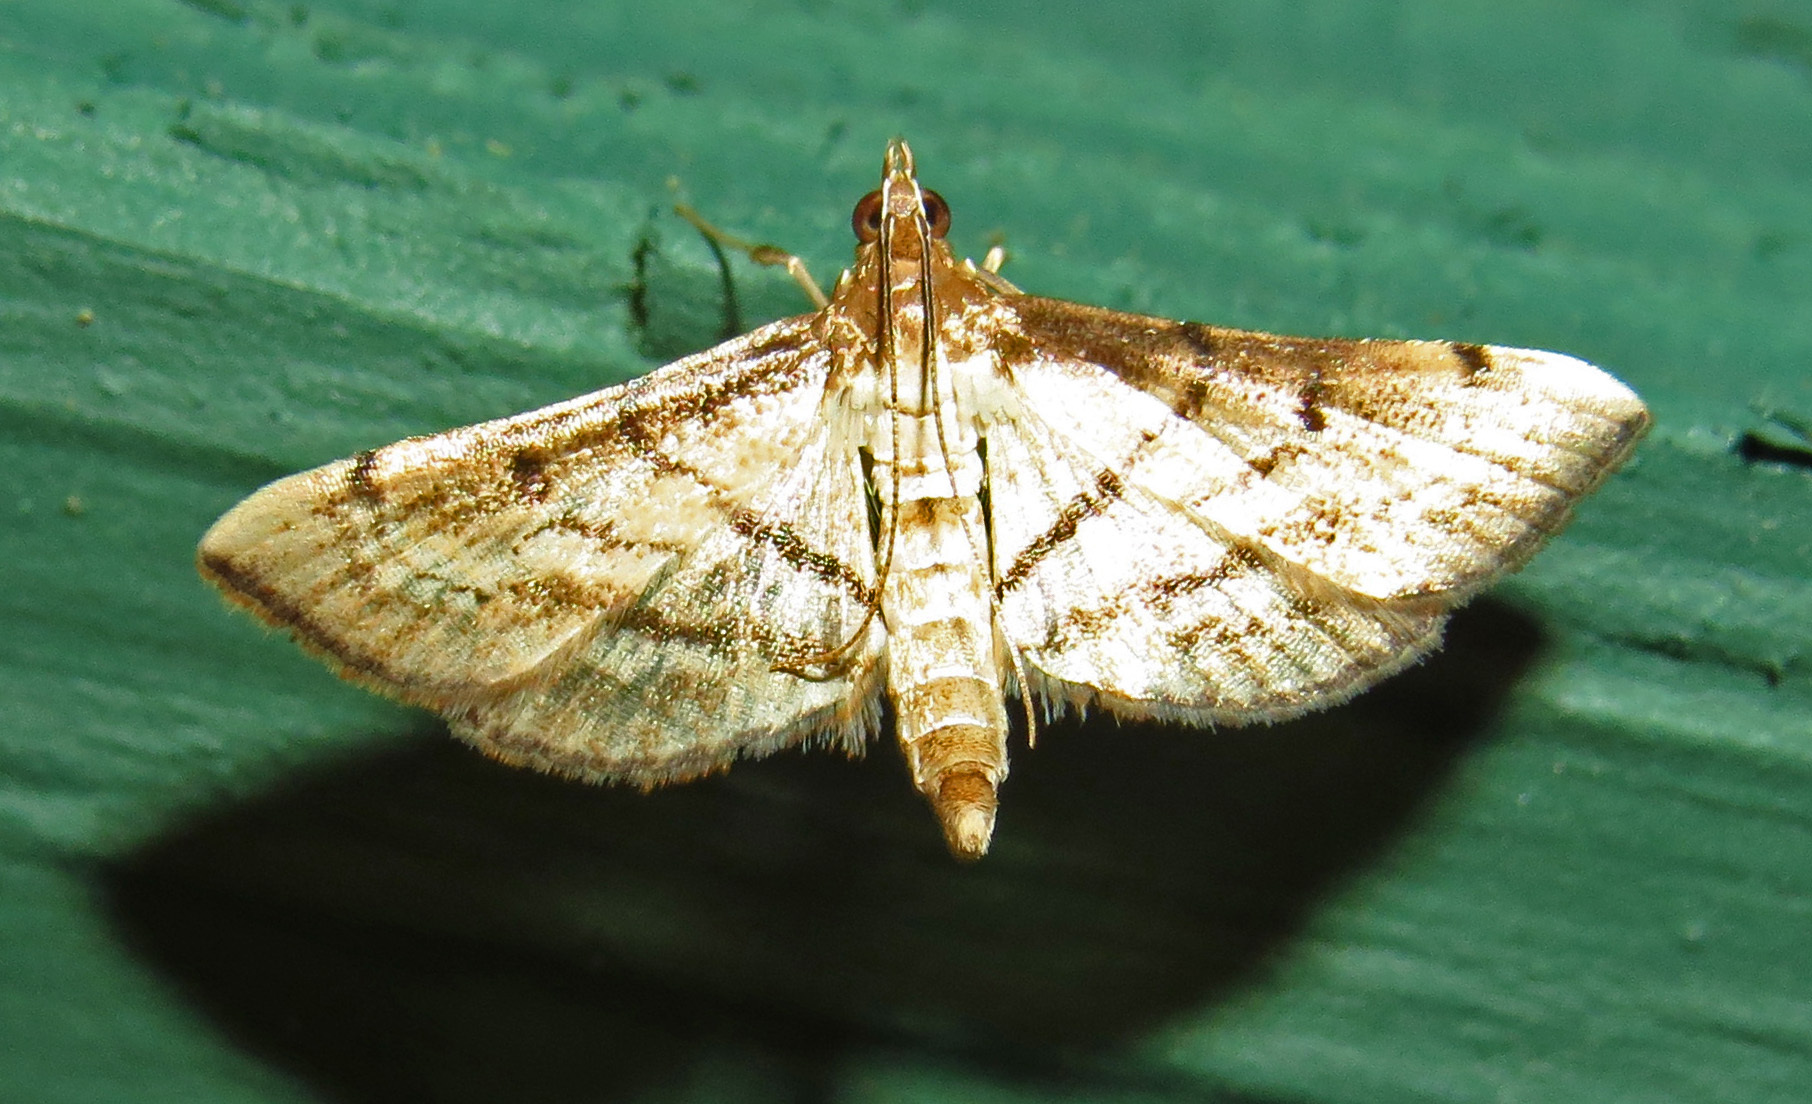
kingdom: Animalia
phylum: Arthropoda
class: Insecta
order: Lepidoptera
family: Crambidae
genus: Cnaphalocrocis
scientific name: Cnaphalocrocis Marasmia cochrusalis
